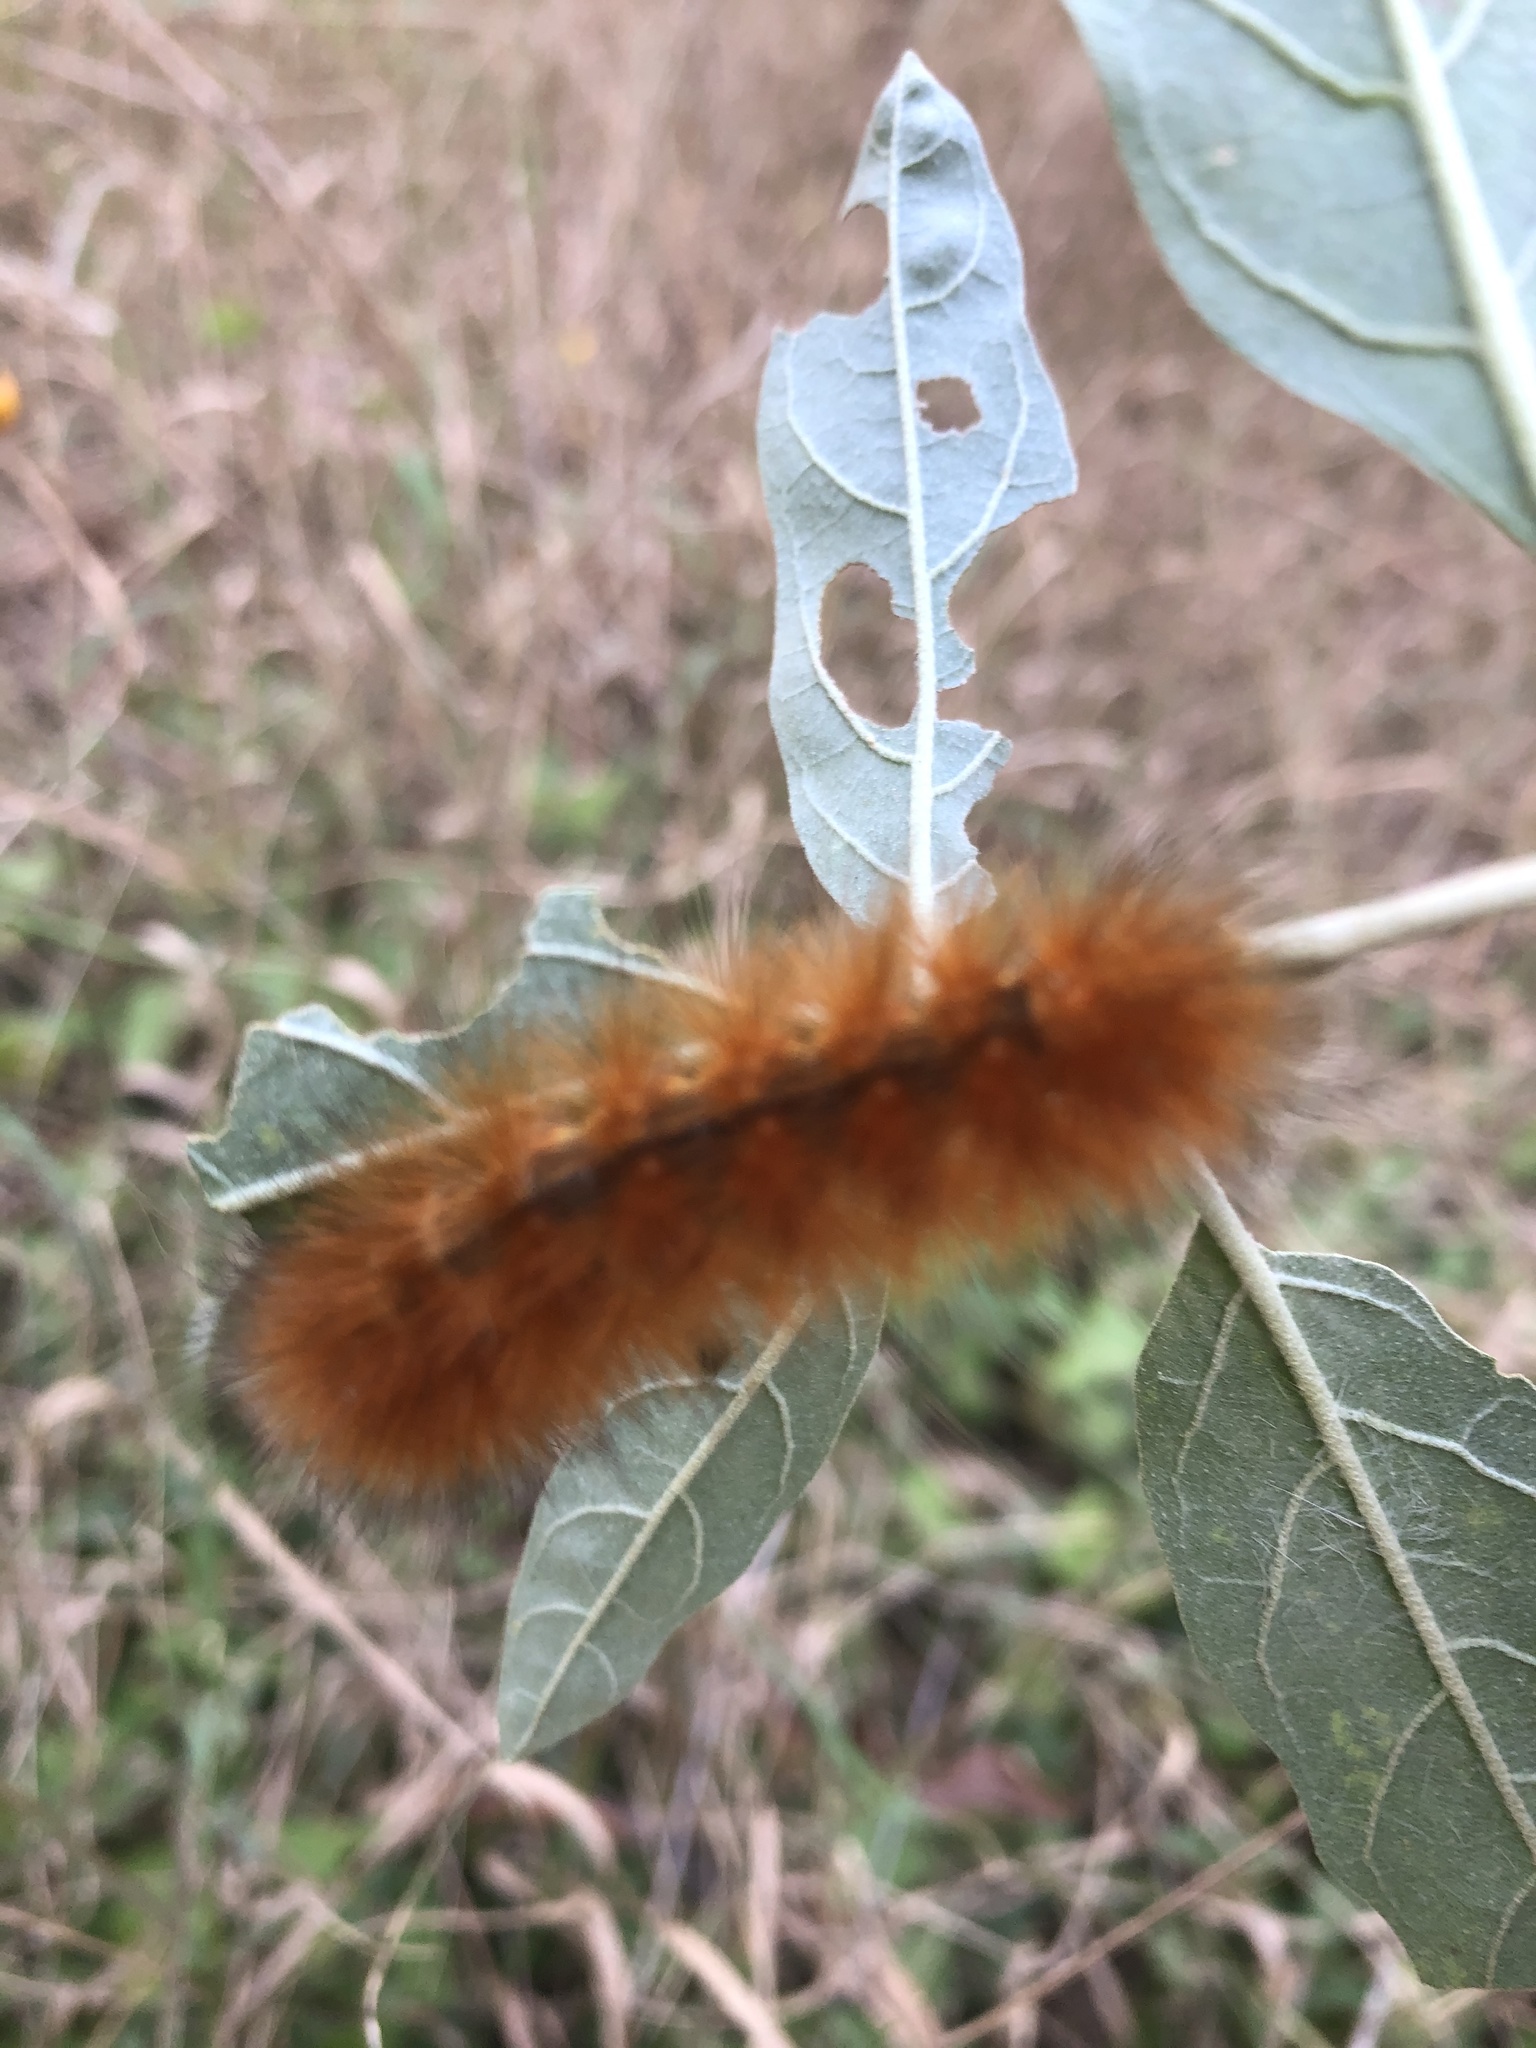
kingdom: Animalia
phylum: Arthropoda
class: Insecta
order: Lepidoptera
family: Erebidae
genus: Spilosoma
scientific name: Spilosoma virginica
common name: Virginia tiger moth
